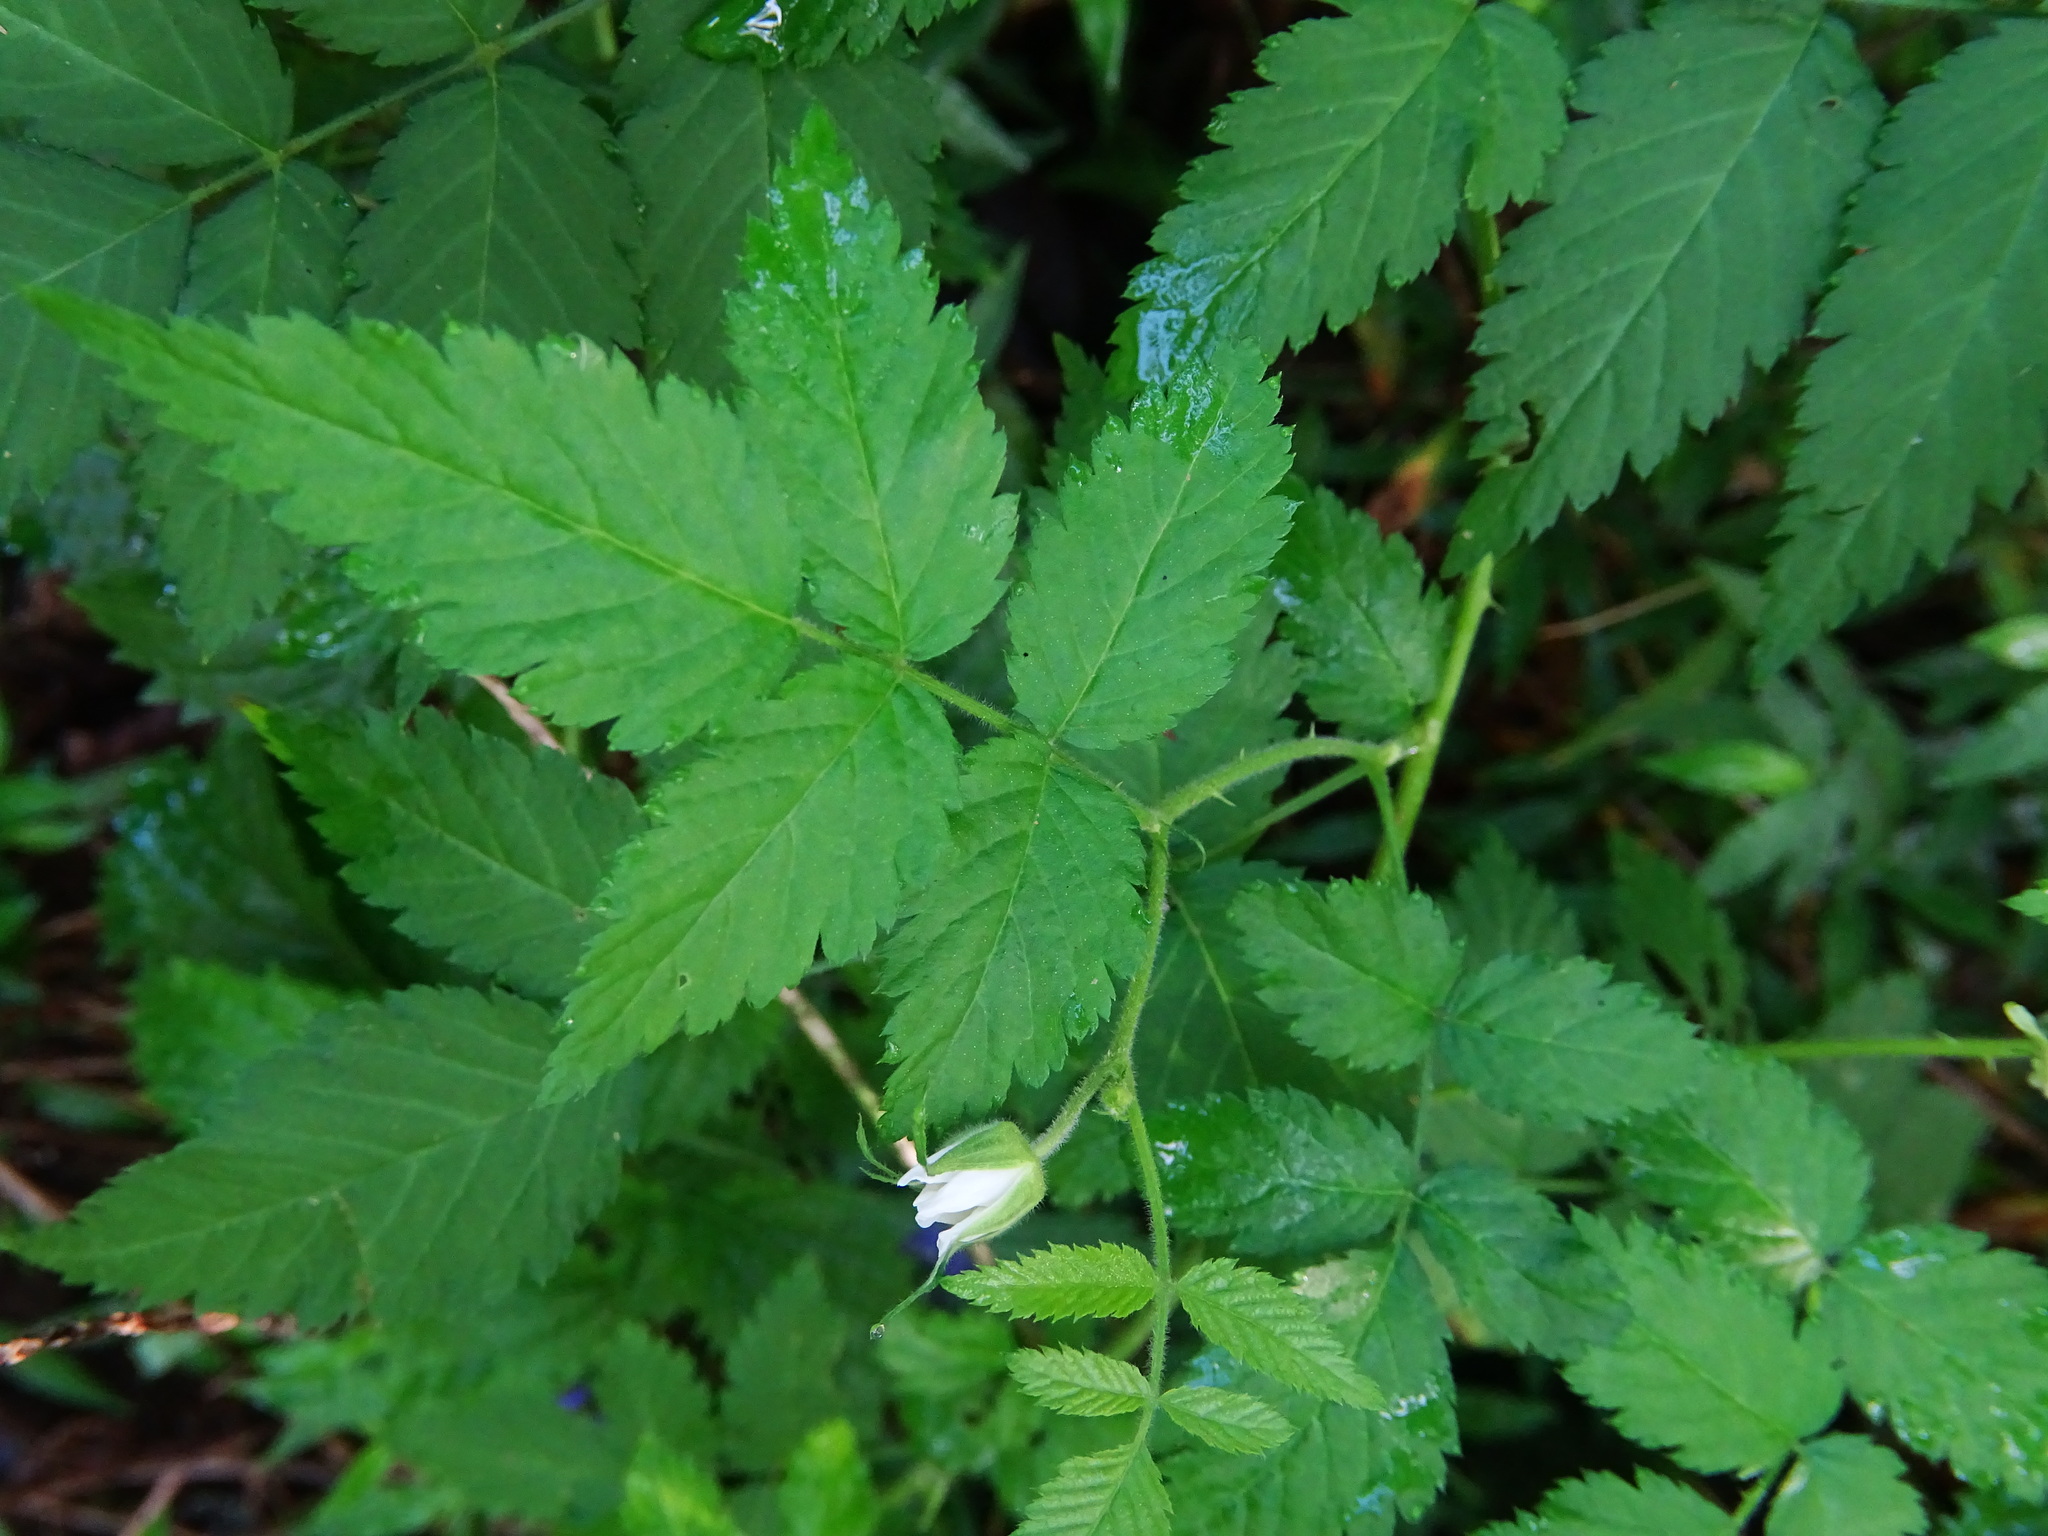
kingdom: Plantae
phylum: Tracheophyta
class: Magnoliopsida
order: Rosales
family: Rosaceae
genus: Rubus
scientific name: Rubus rosifolius
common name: Roseleaf raspberry
